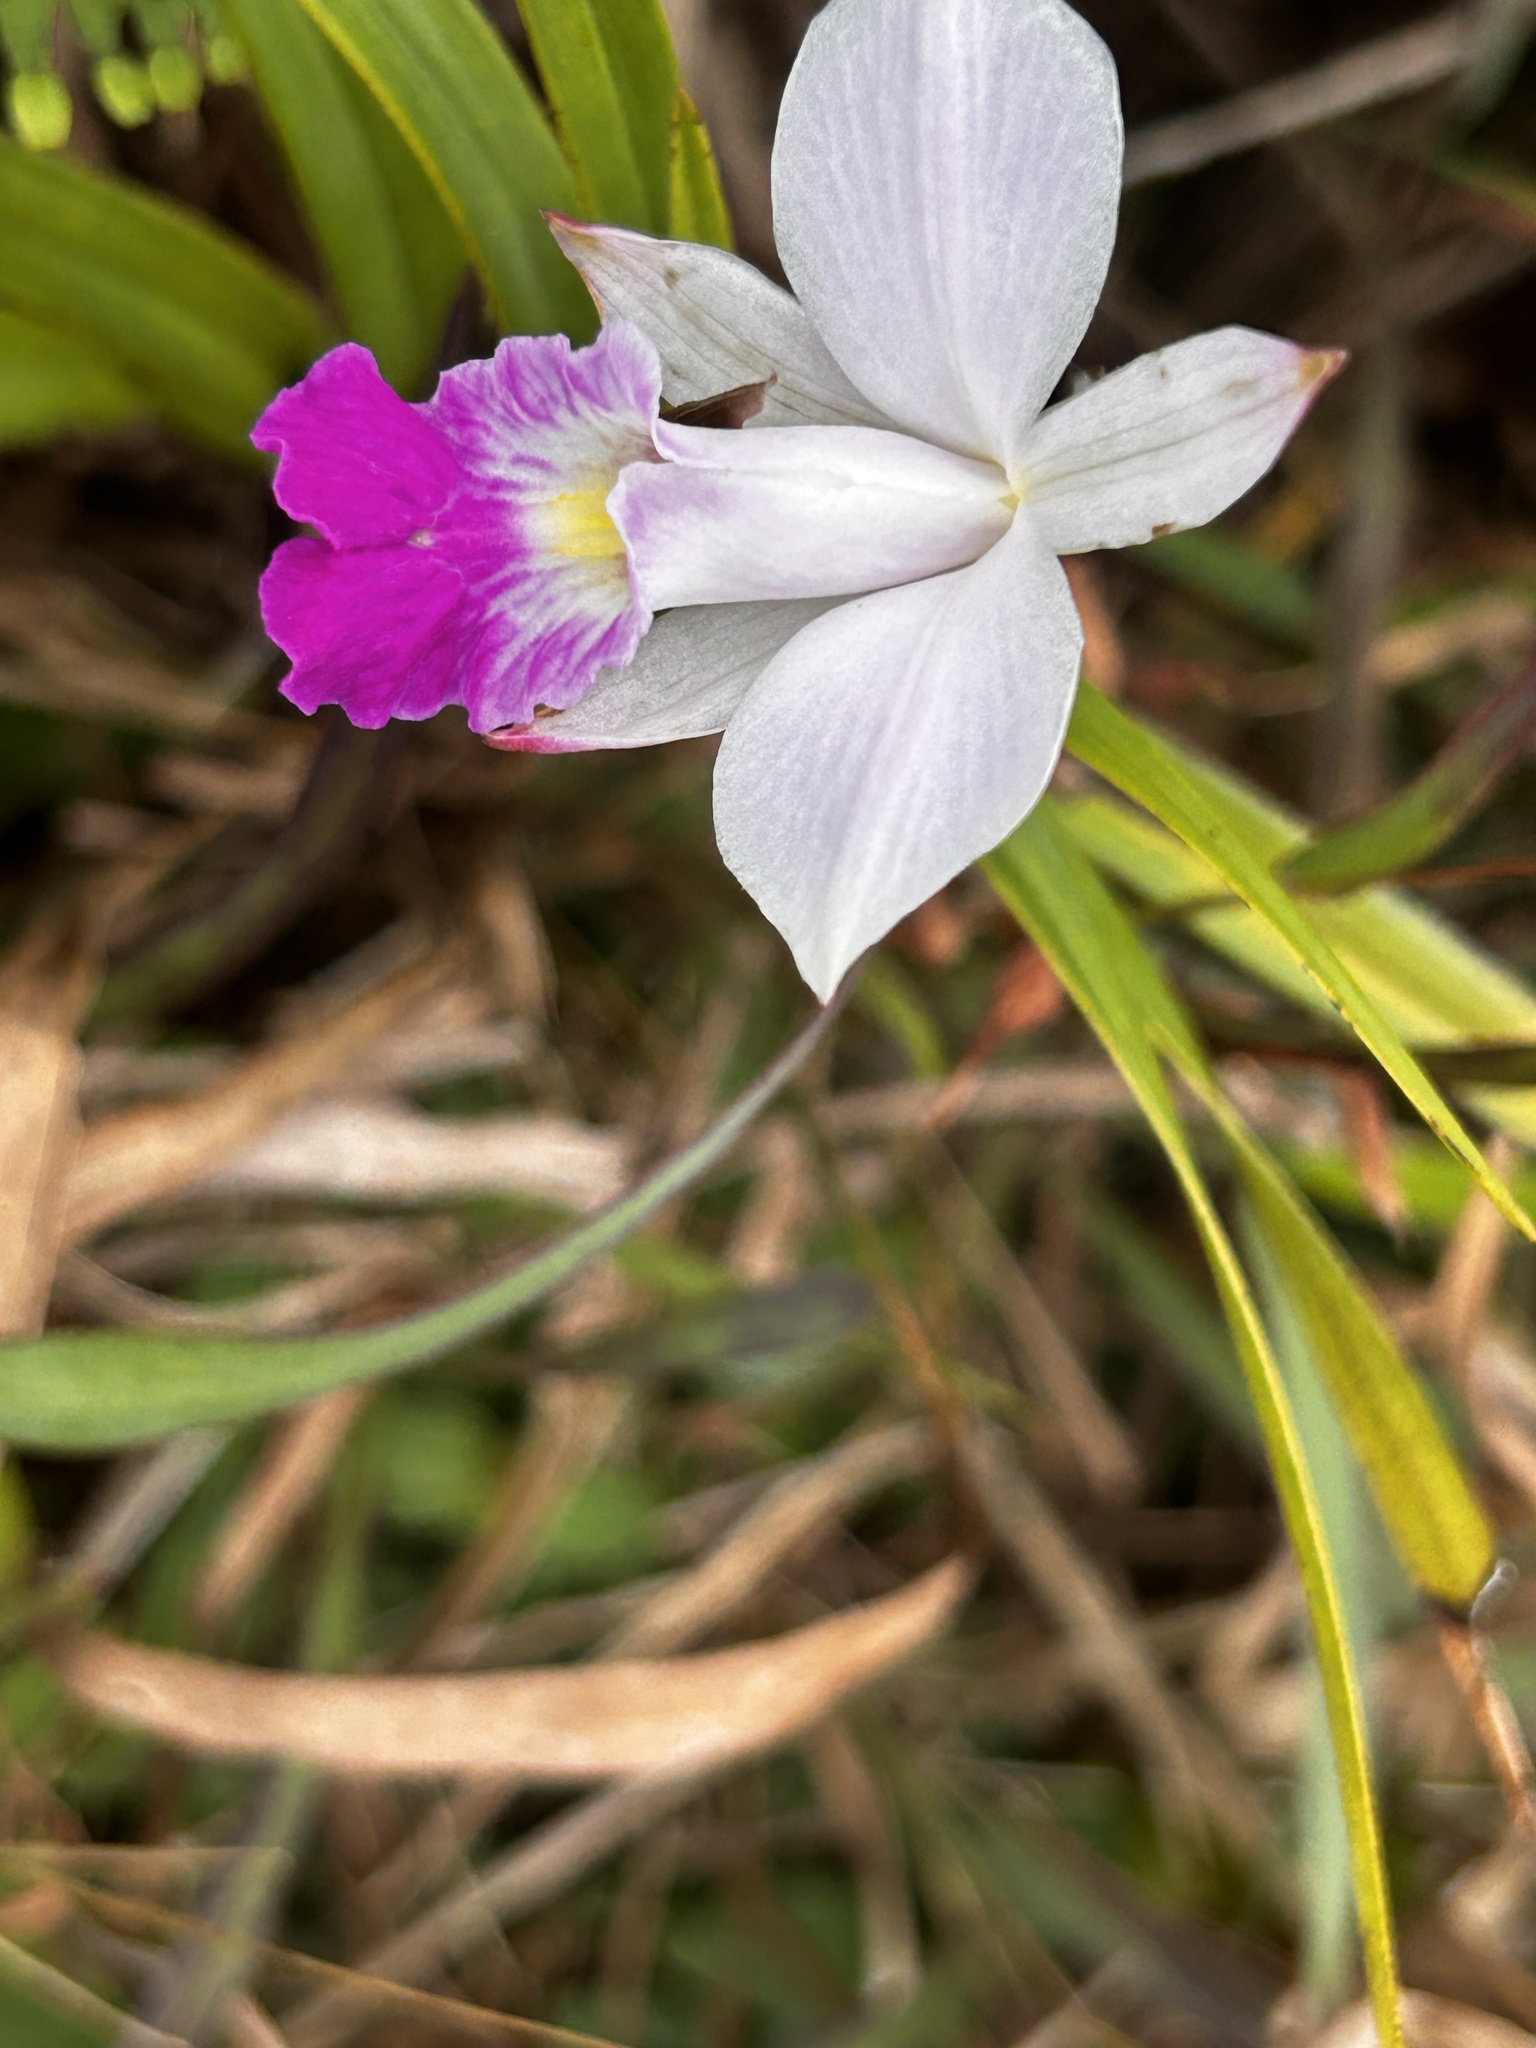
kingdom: Plantae
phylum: Tracheophyta
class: Liliopsida
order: Asparagales
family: Orchidaceae
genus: Arundina
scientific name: Arundina graminifolia
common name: Bamboo orchid
